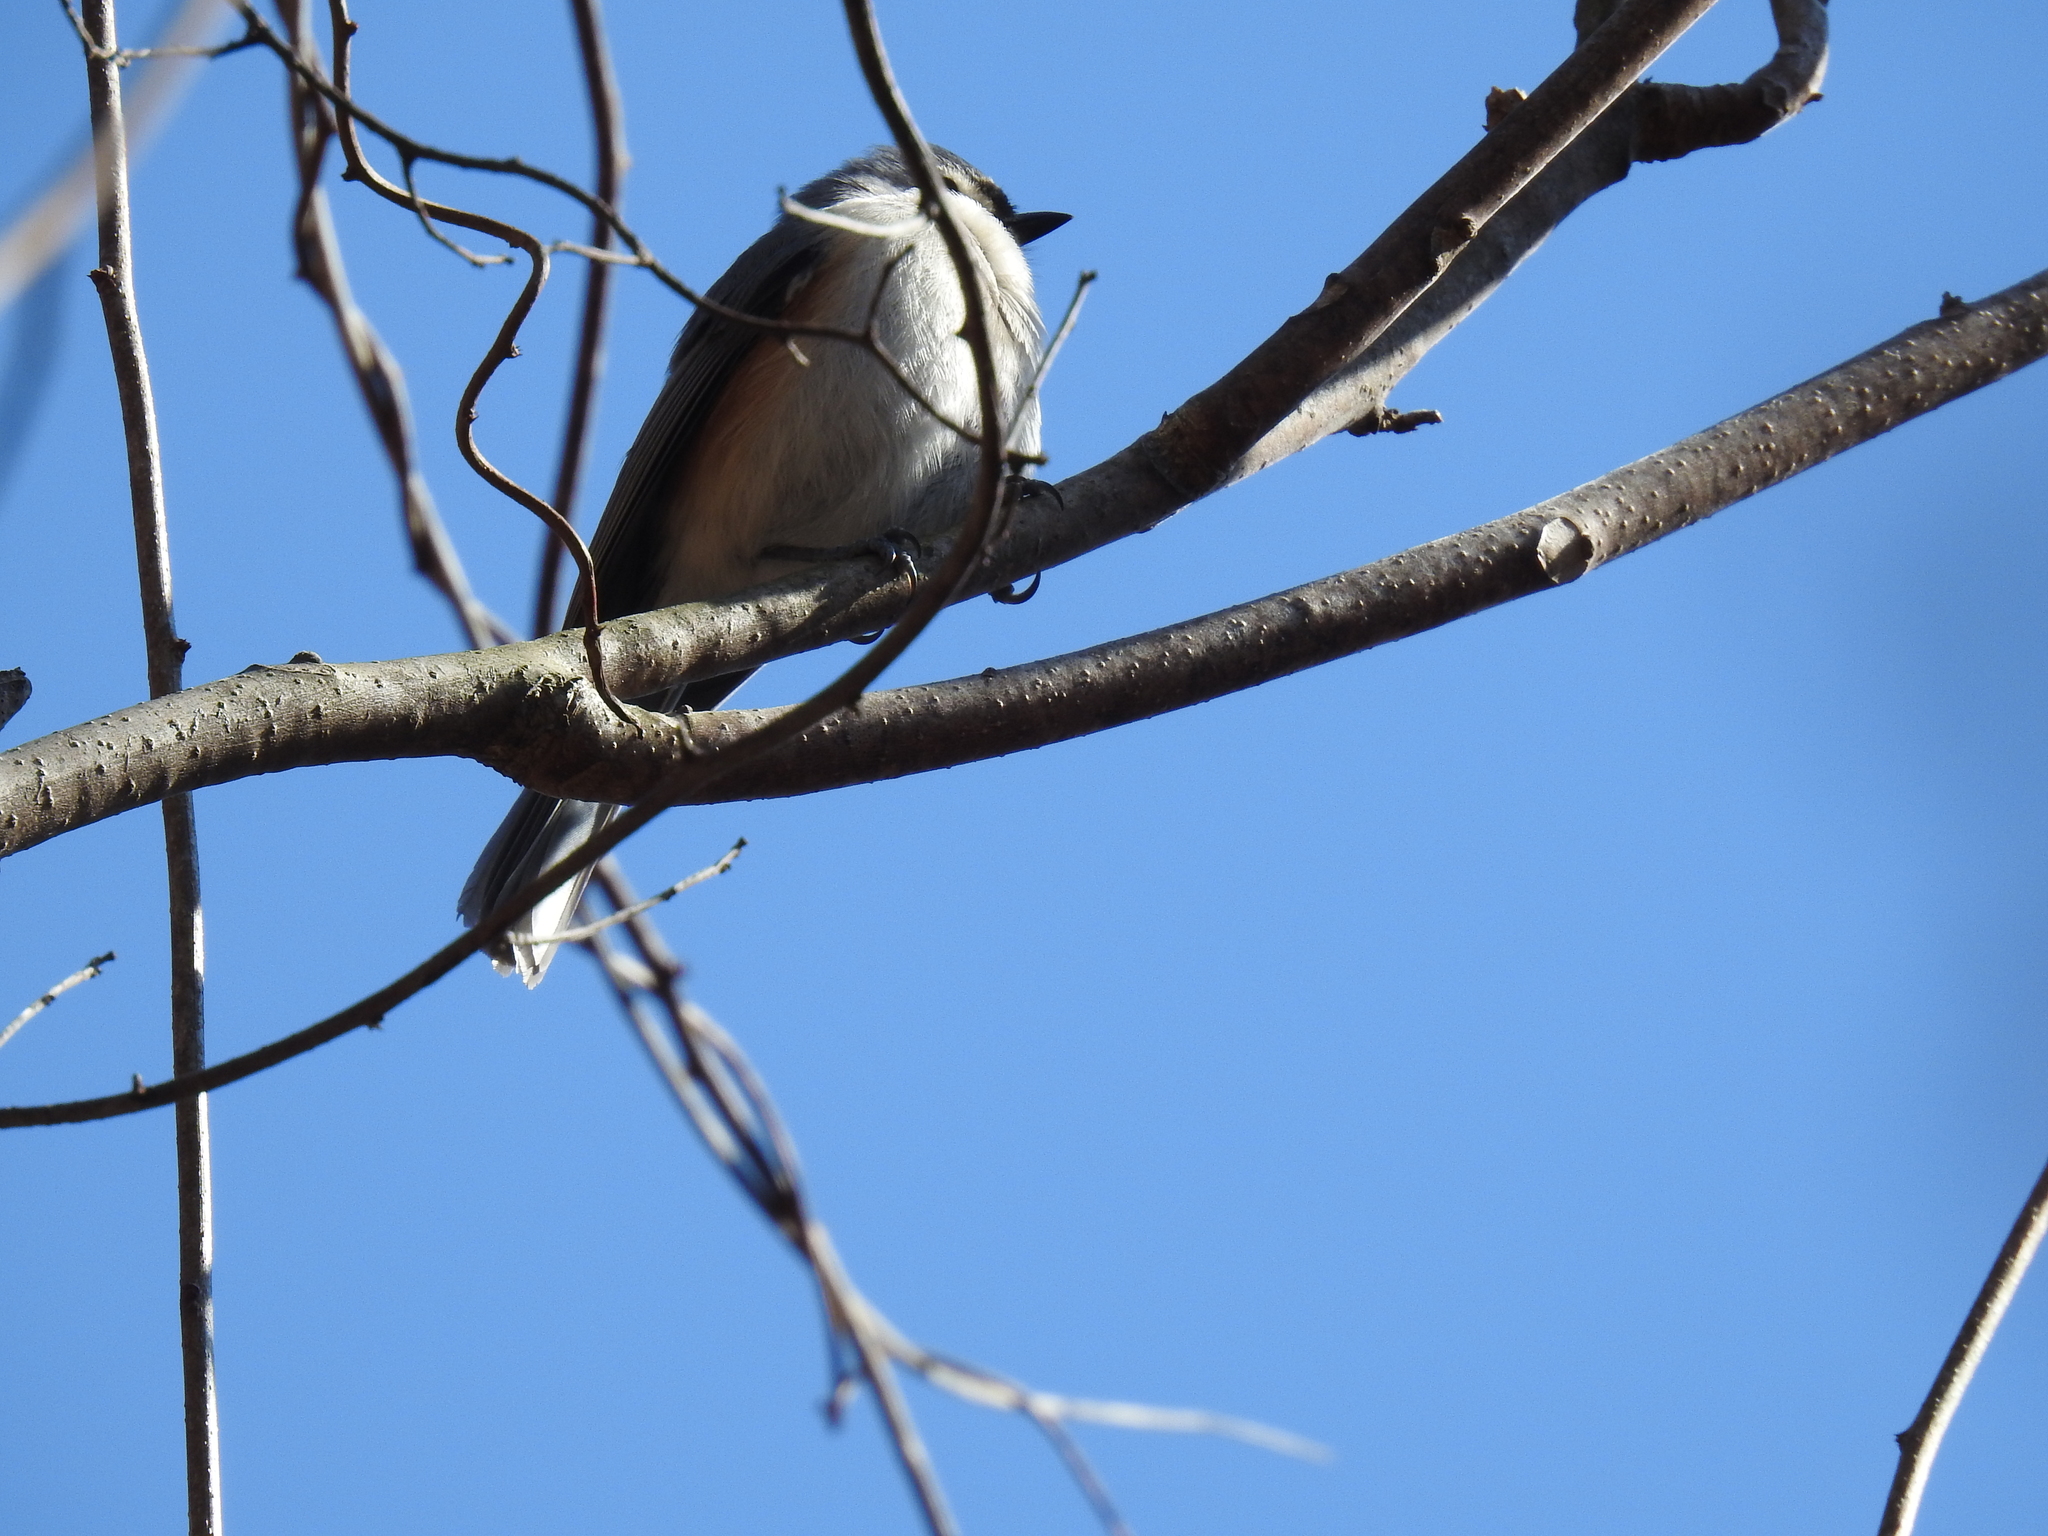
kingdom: Animalia
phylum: Chordata
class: Aves
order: Passeriformes
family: Paridae
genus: Baeolophus
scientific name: Baeolophus bicolor
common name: Tufted titmouse
